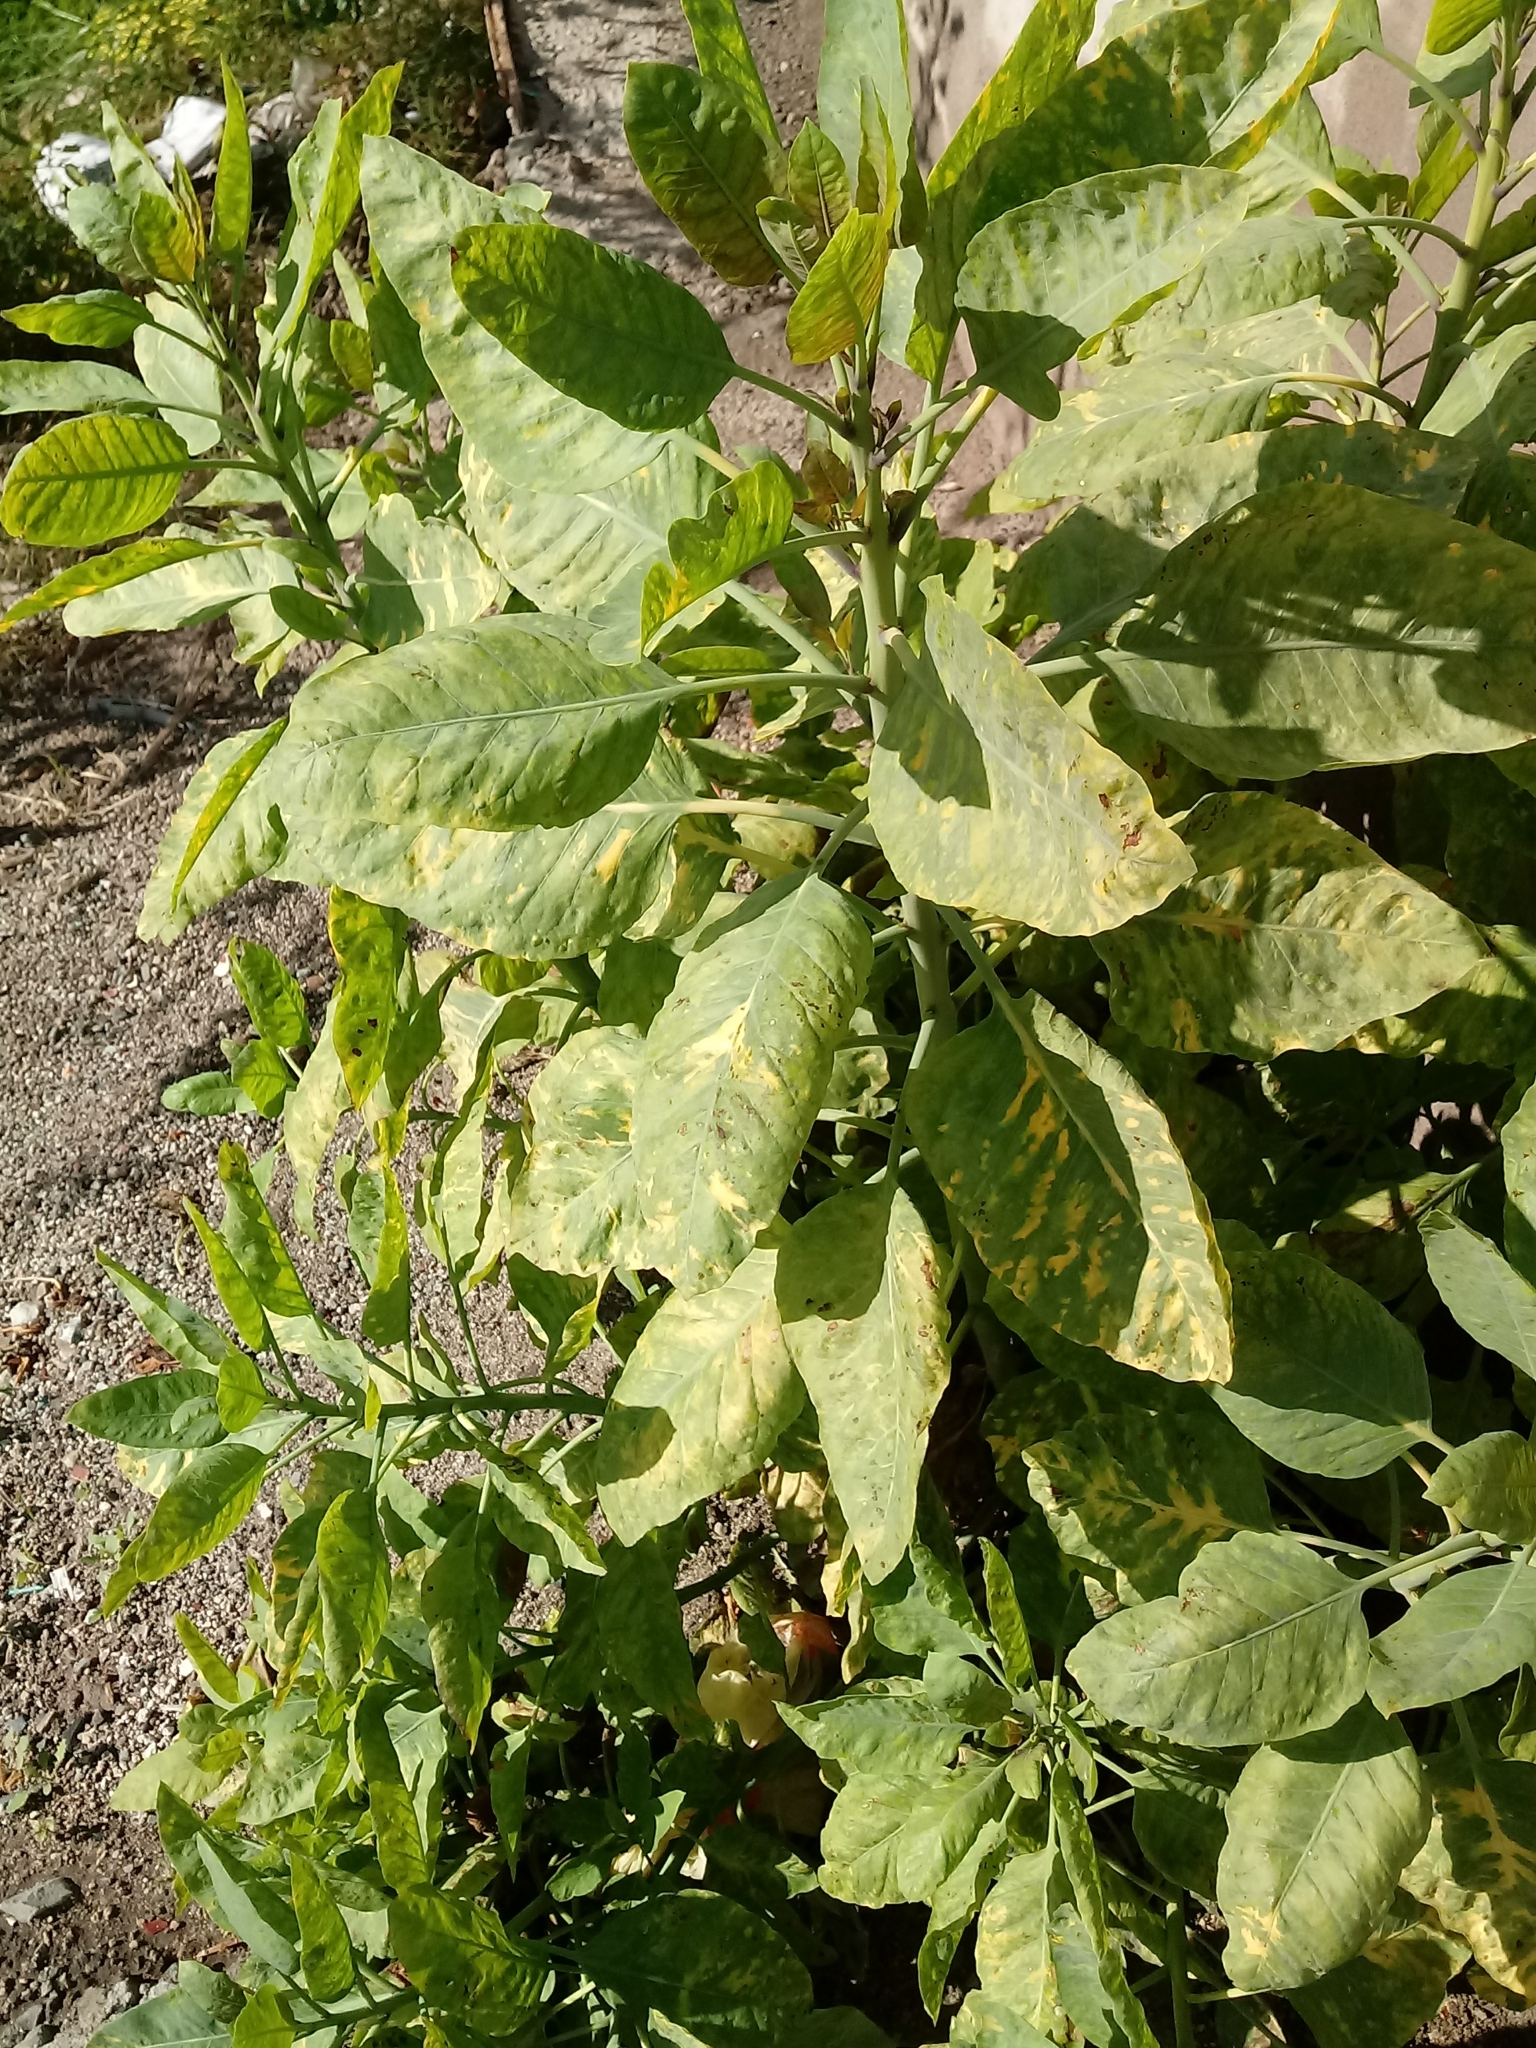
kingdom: Plantae
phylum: Tracheophyta
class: Magnoliopsida
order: Solanales
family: Solanaceae
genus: Nicotiana
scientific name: Nicotiana glauca
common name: Tree tobacco
